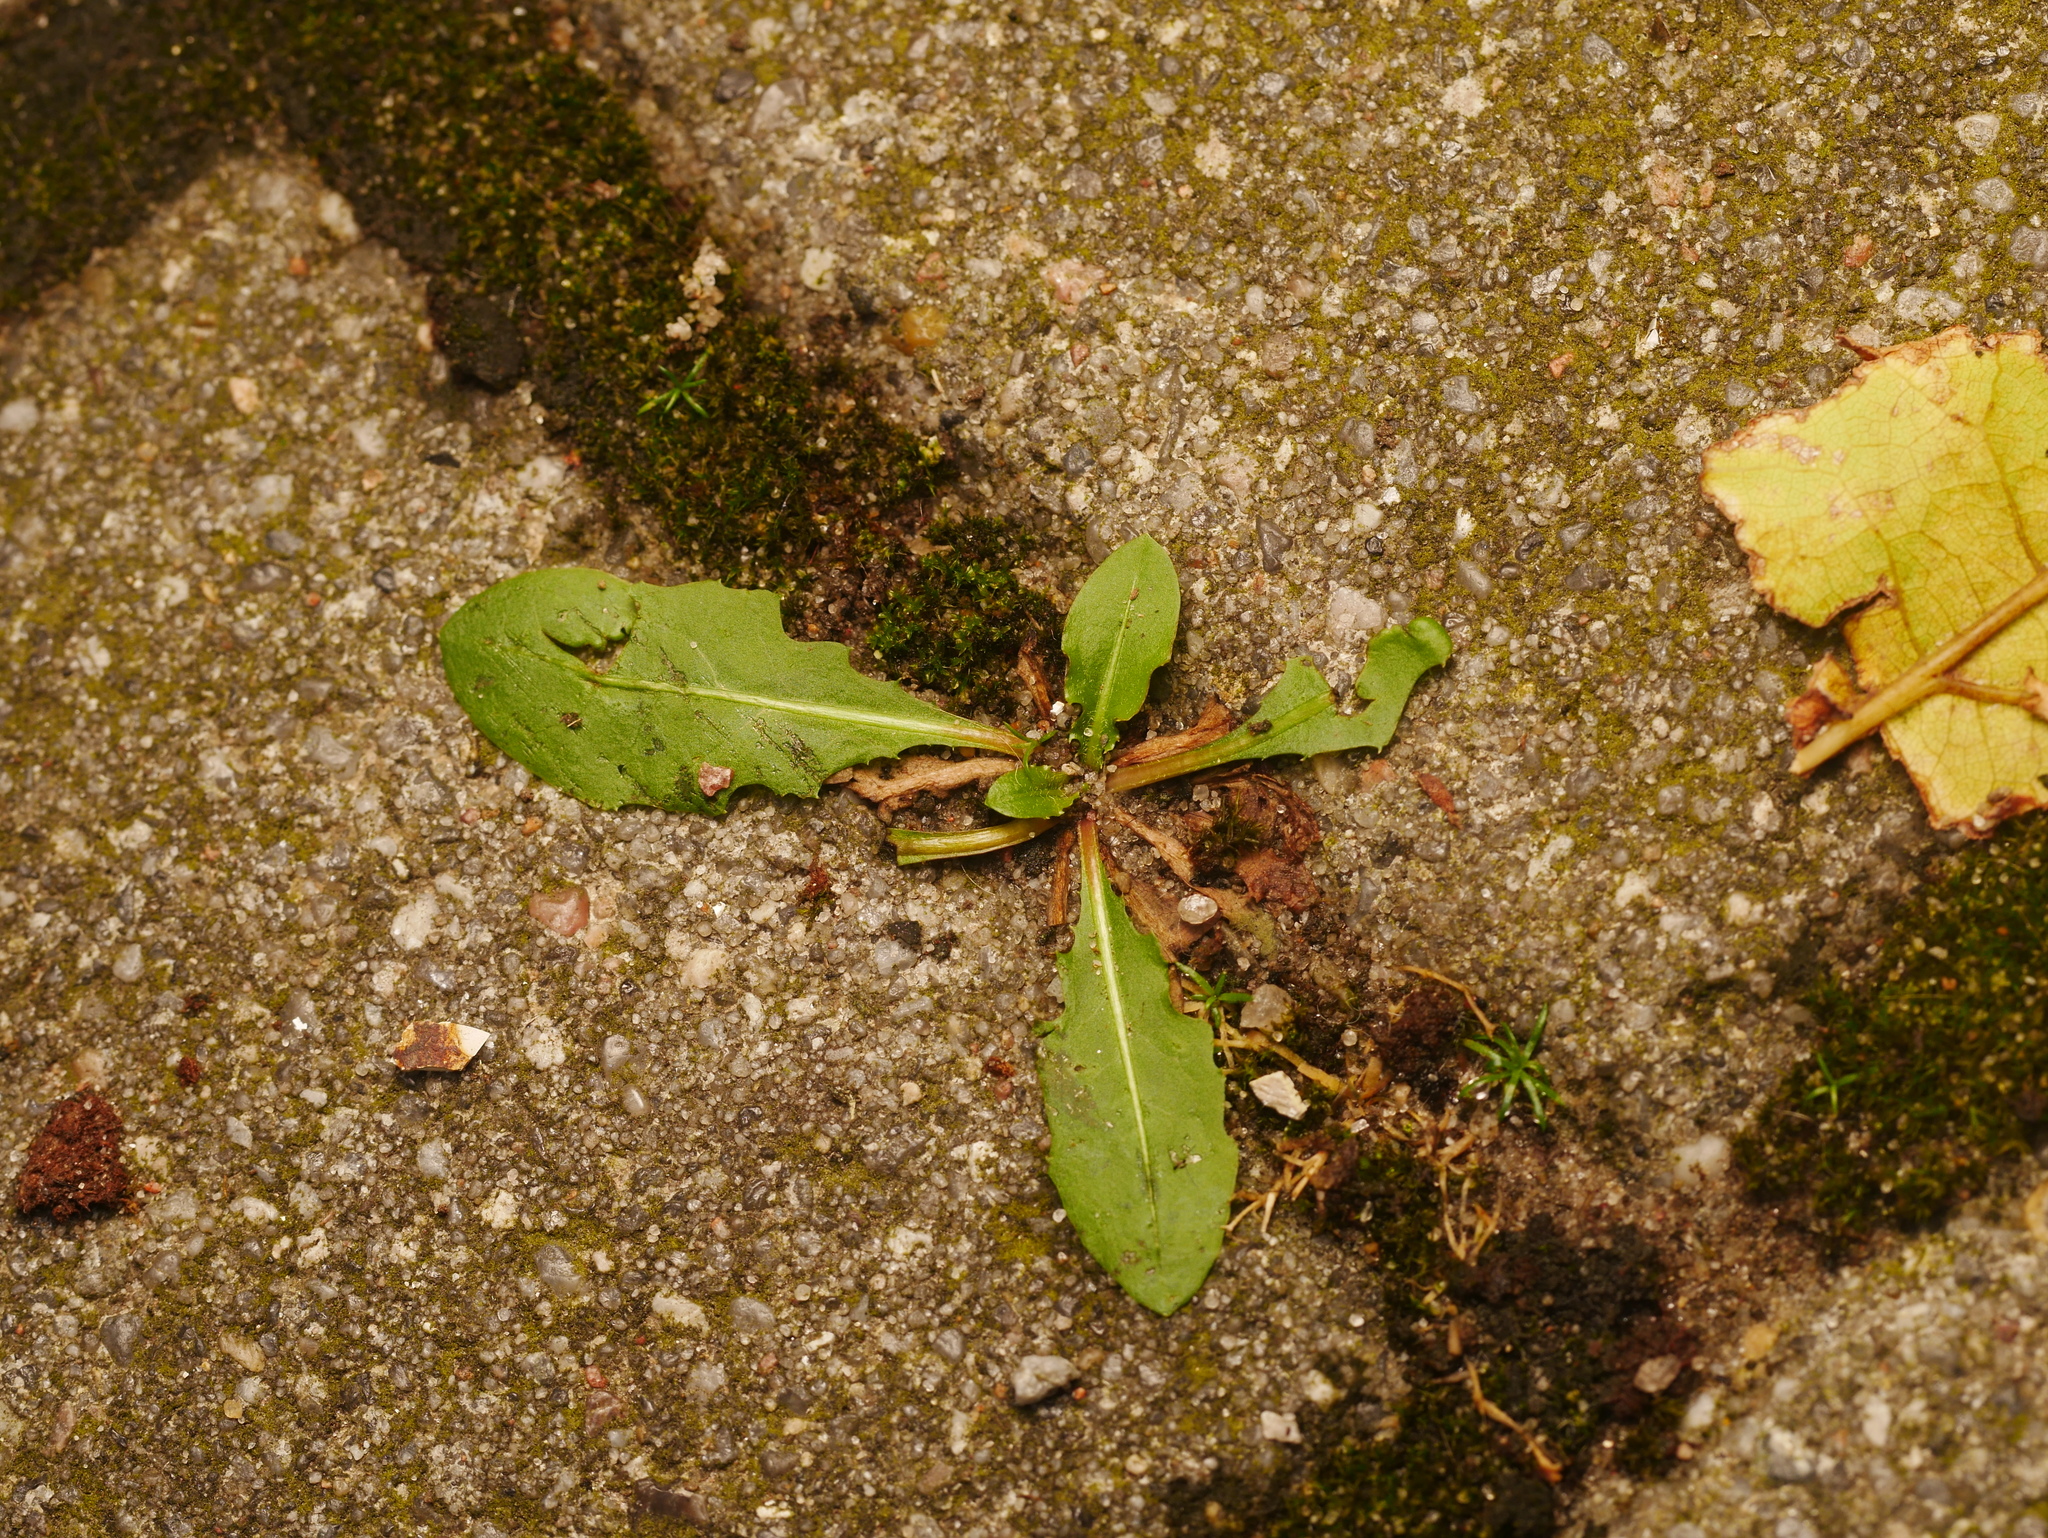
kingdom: Plantae
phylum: Tracheophyta
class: Magnoliopsida
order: Asterales
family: Asteraceae
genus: Taraxacum
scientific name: Taraxacum
